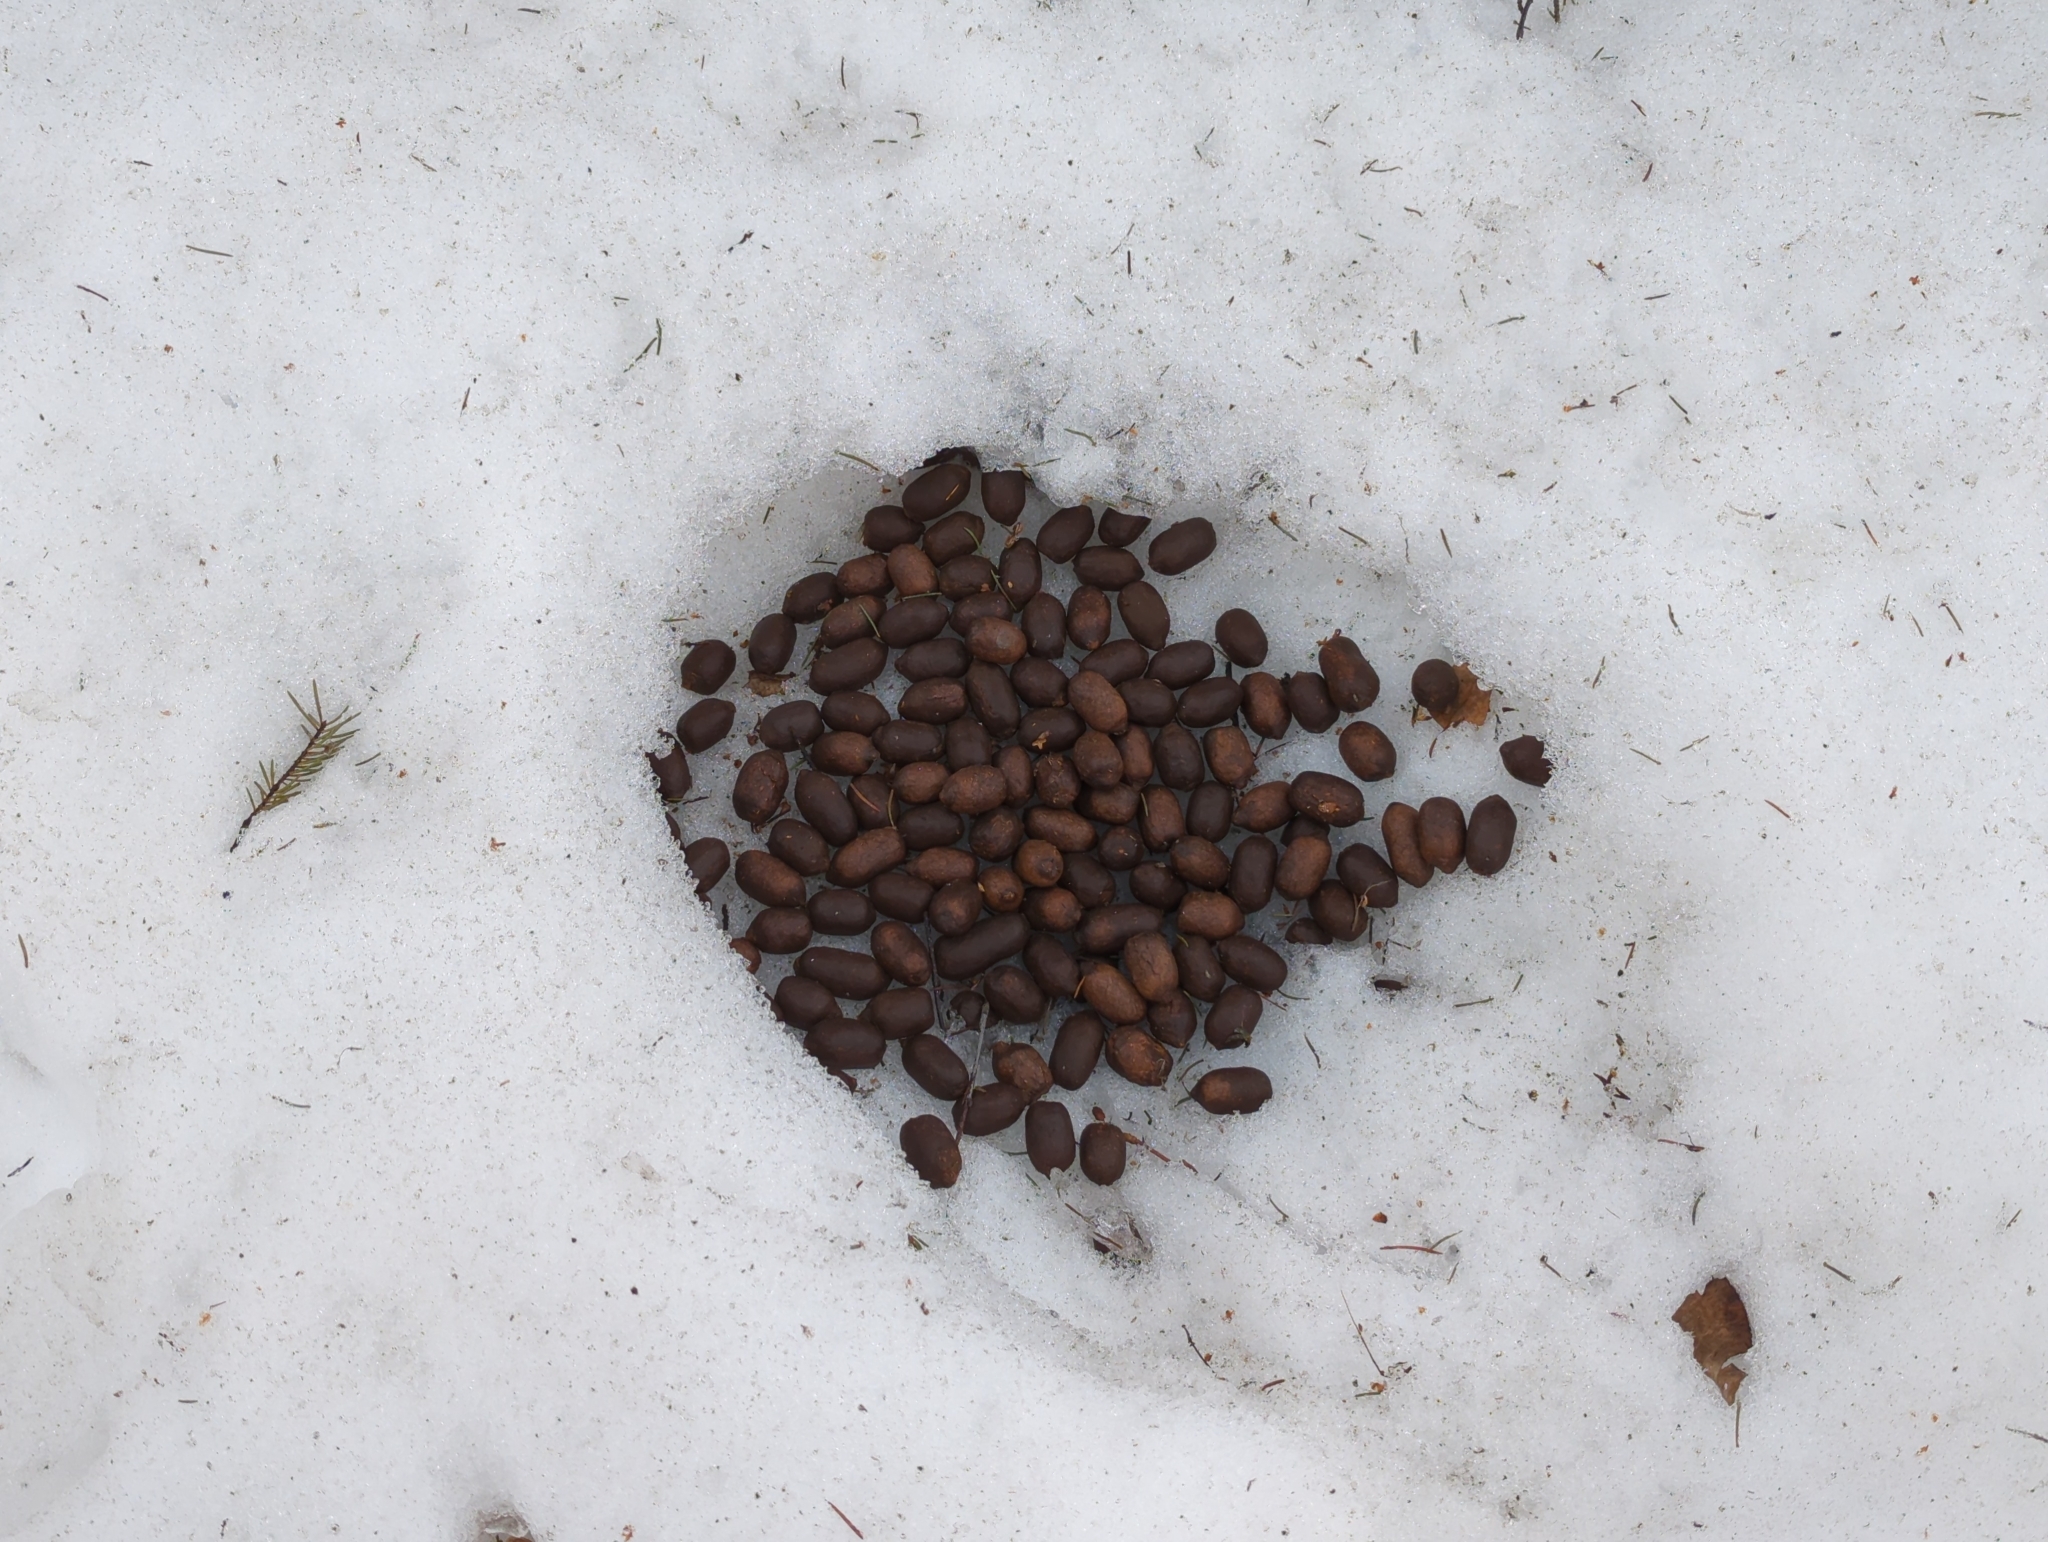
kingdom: Animalia
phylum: Chordata
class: Mammalia
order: Artiodactyla
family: Cervidae
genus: Alces
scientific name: Alces alces
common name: Moose
